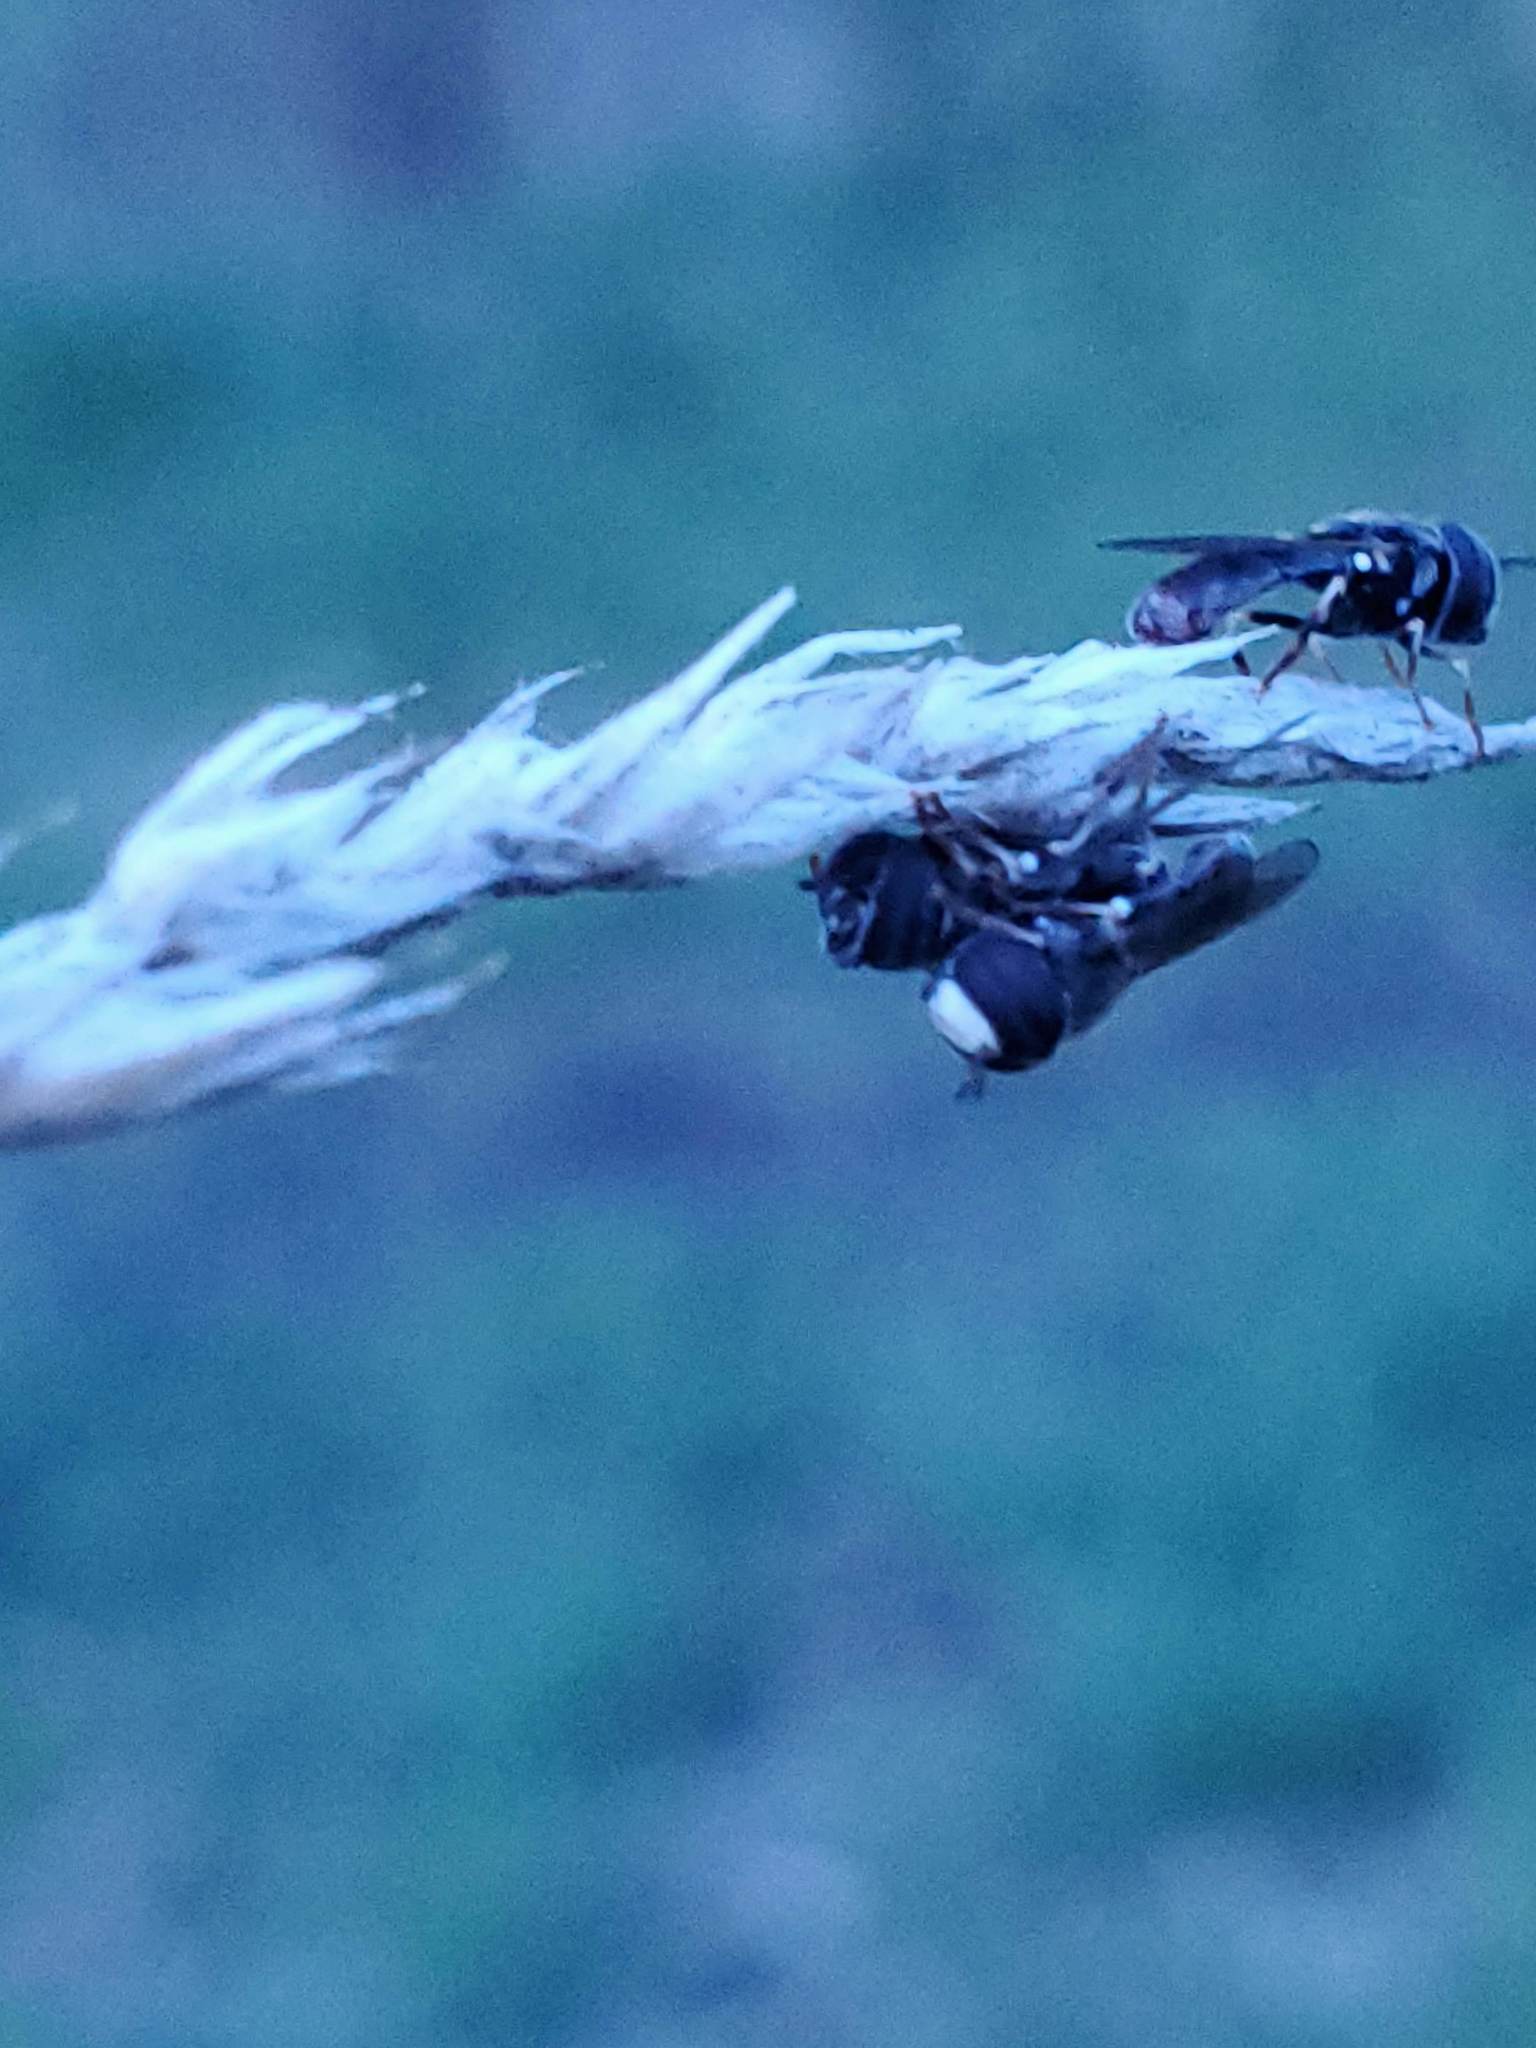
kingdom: Animalia
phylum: Arthropoda
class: Insecta
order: Diptera
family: Syrphidae
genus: Paragus
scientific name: Paragus
